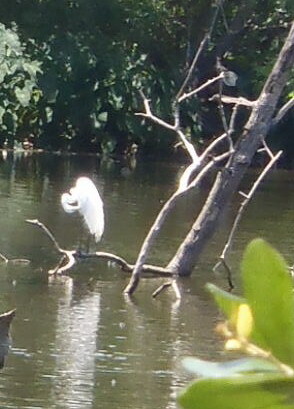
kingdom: Animalia
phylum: Chordata
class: Aves
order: Pelecaniformes
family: Ardeidae
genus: Ardea
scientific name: Ardea alba
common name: Great egret
